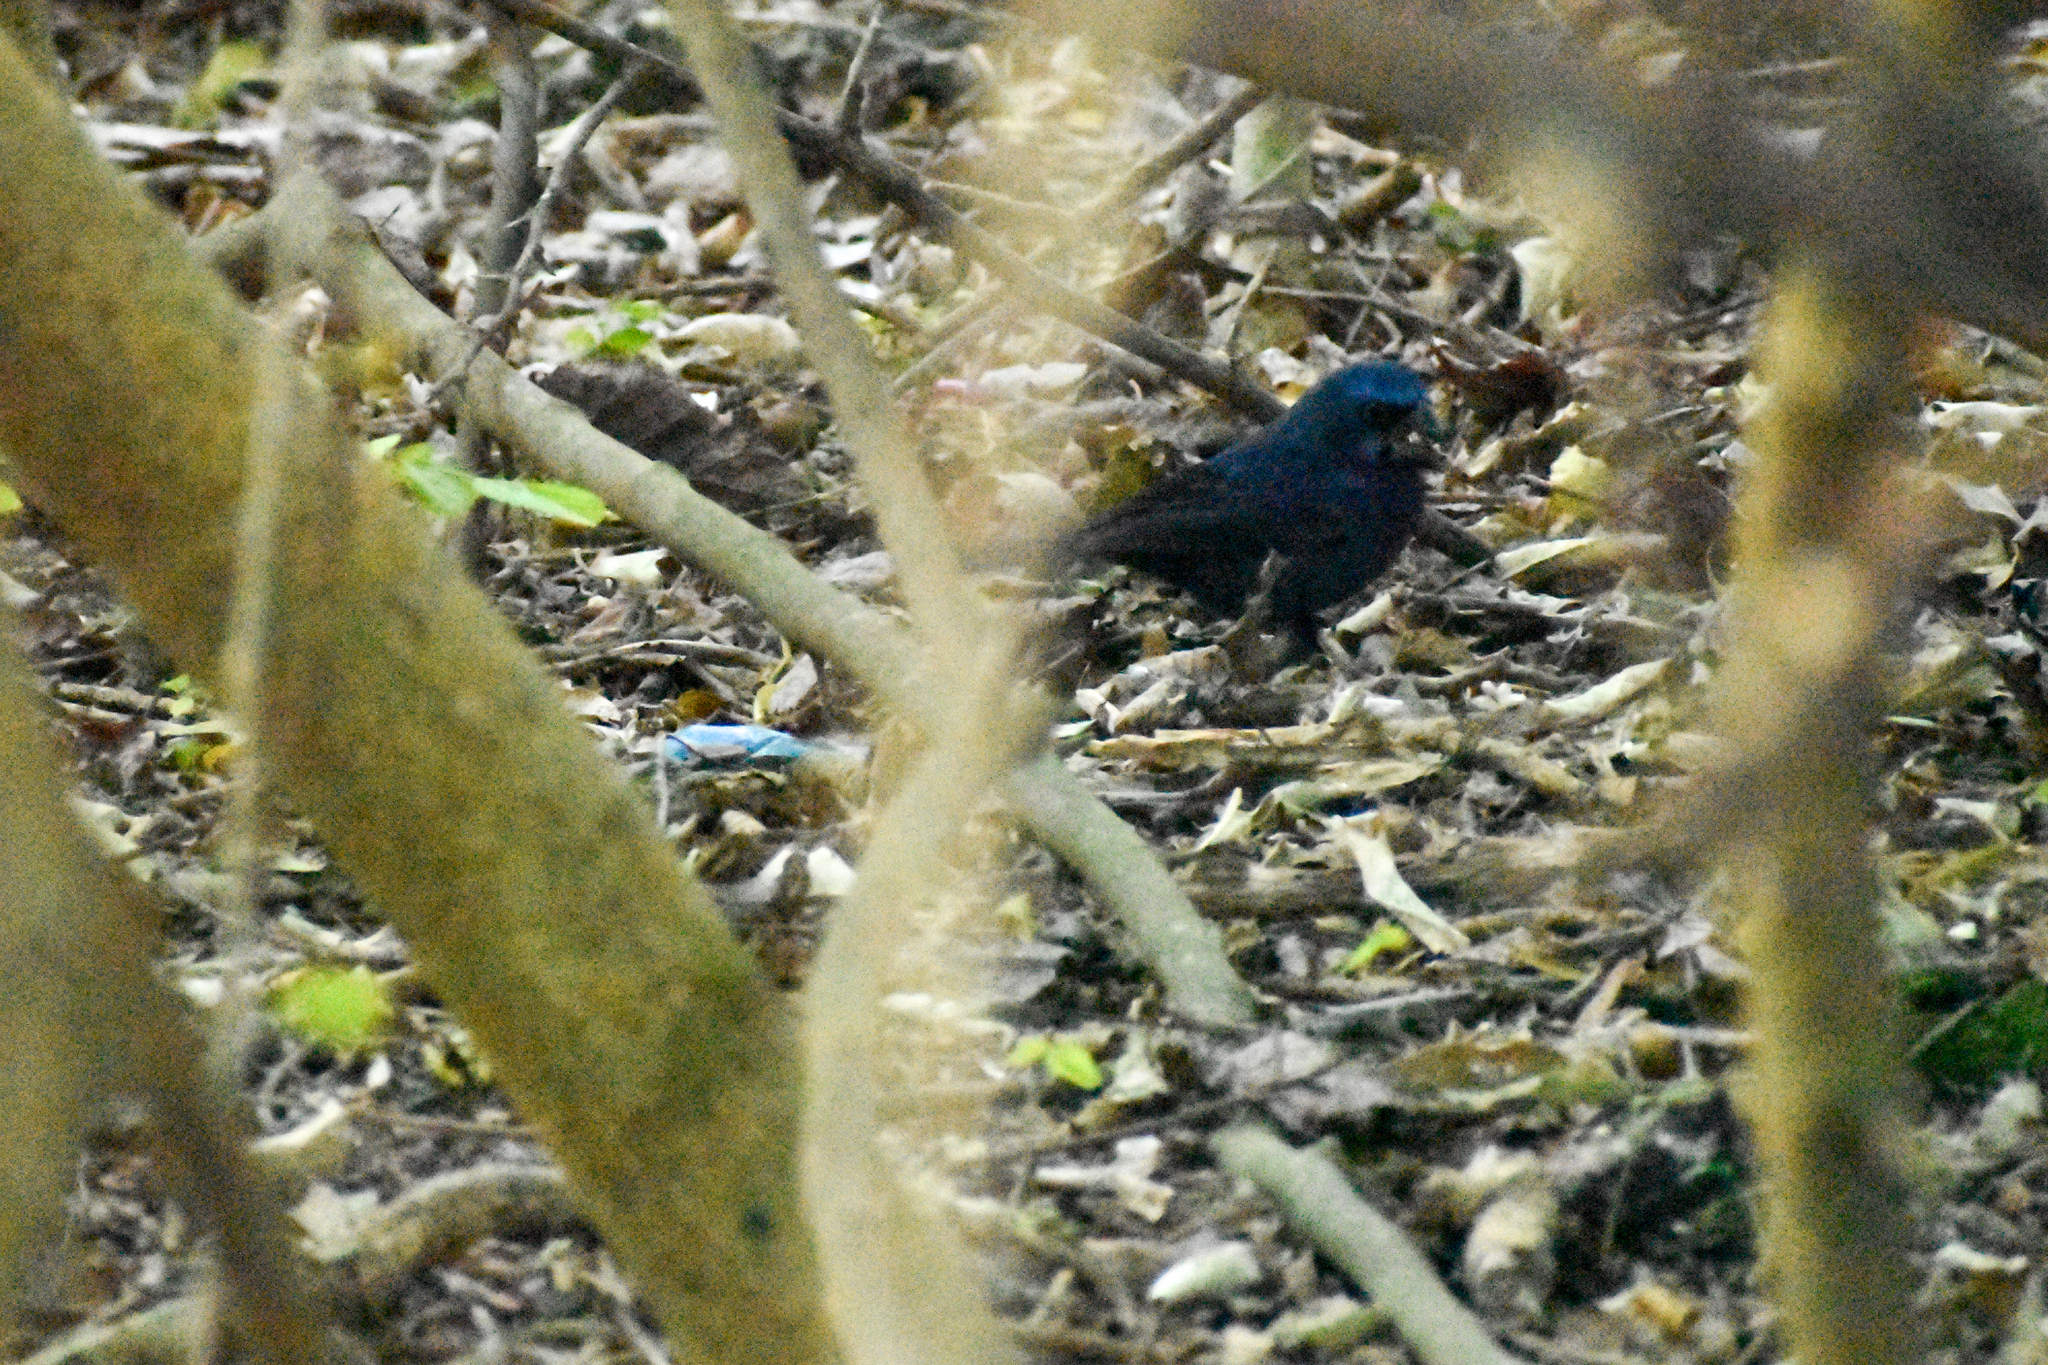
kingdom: Animalia
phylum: Chordata
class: Aves
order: Passeriformes
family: Cardinalidae
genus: Cyanocompsa
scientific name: Cyanocompsa brissonii
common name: Ultramarine grosbeak
